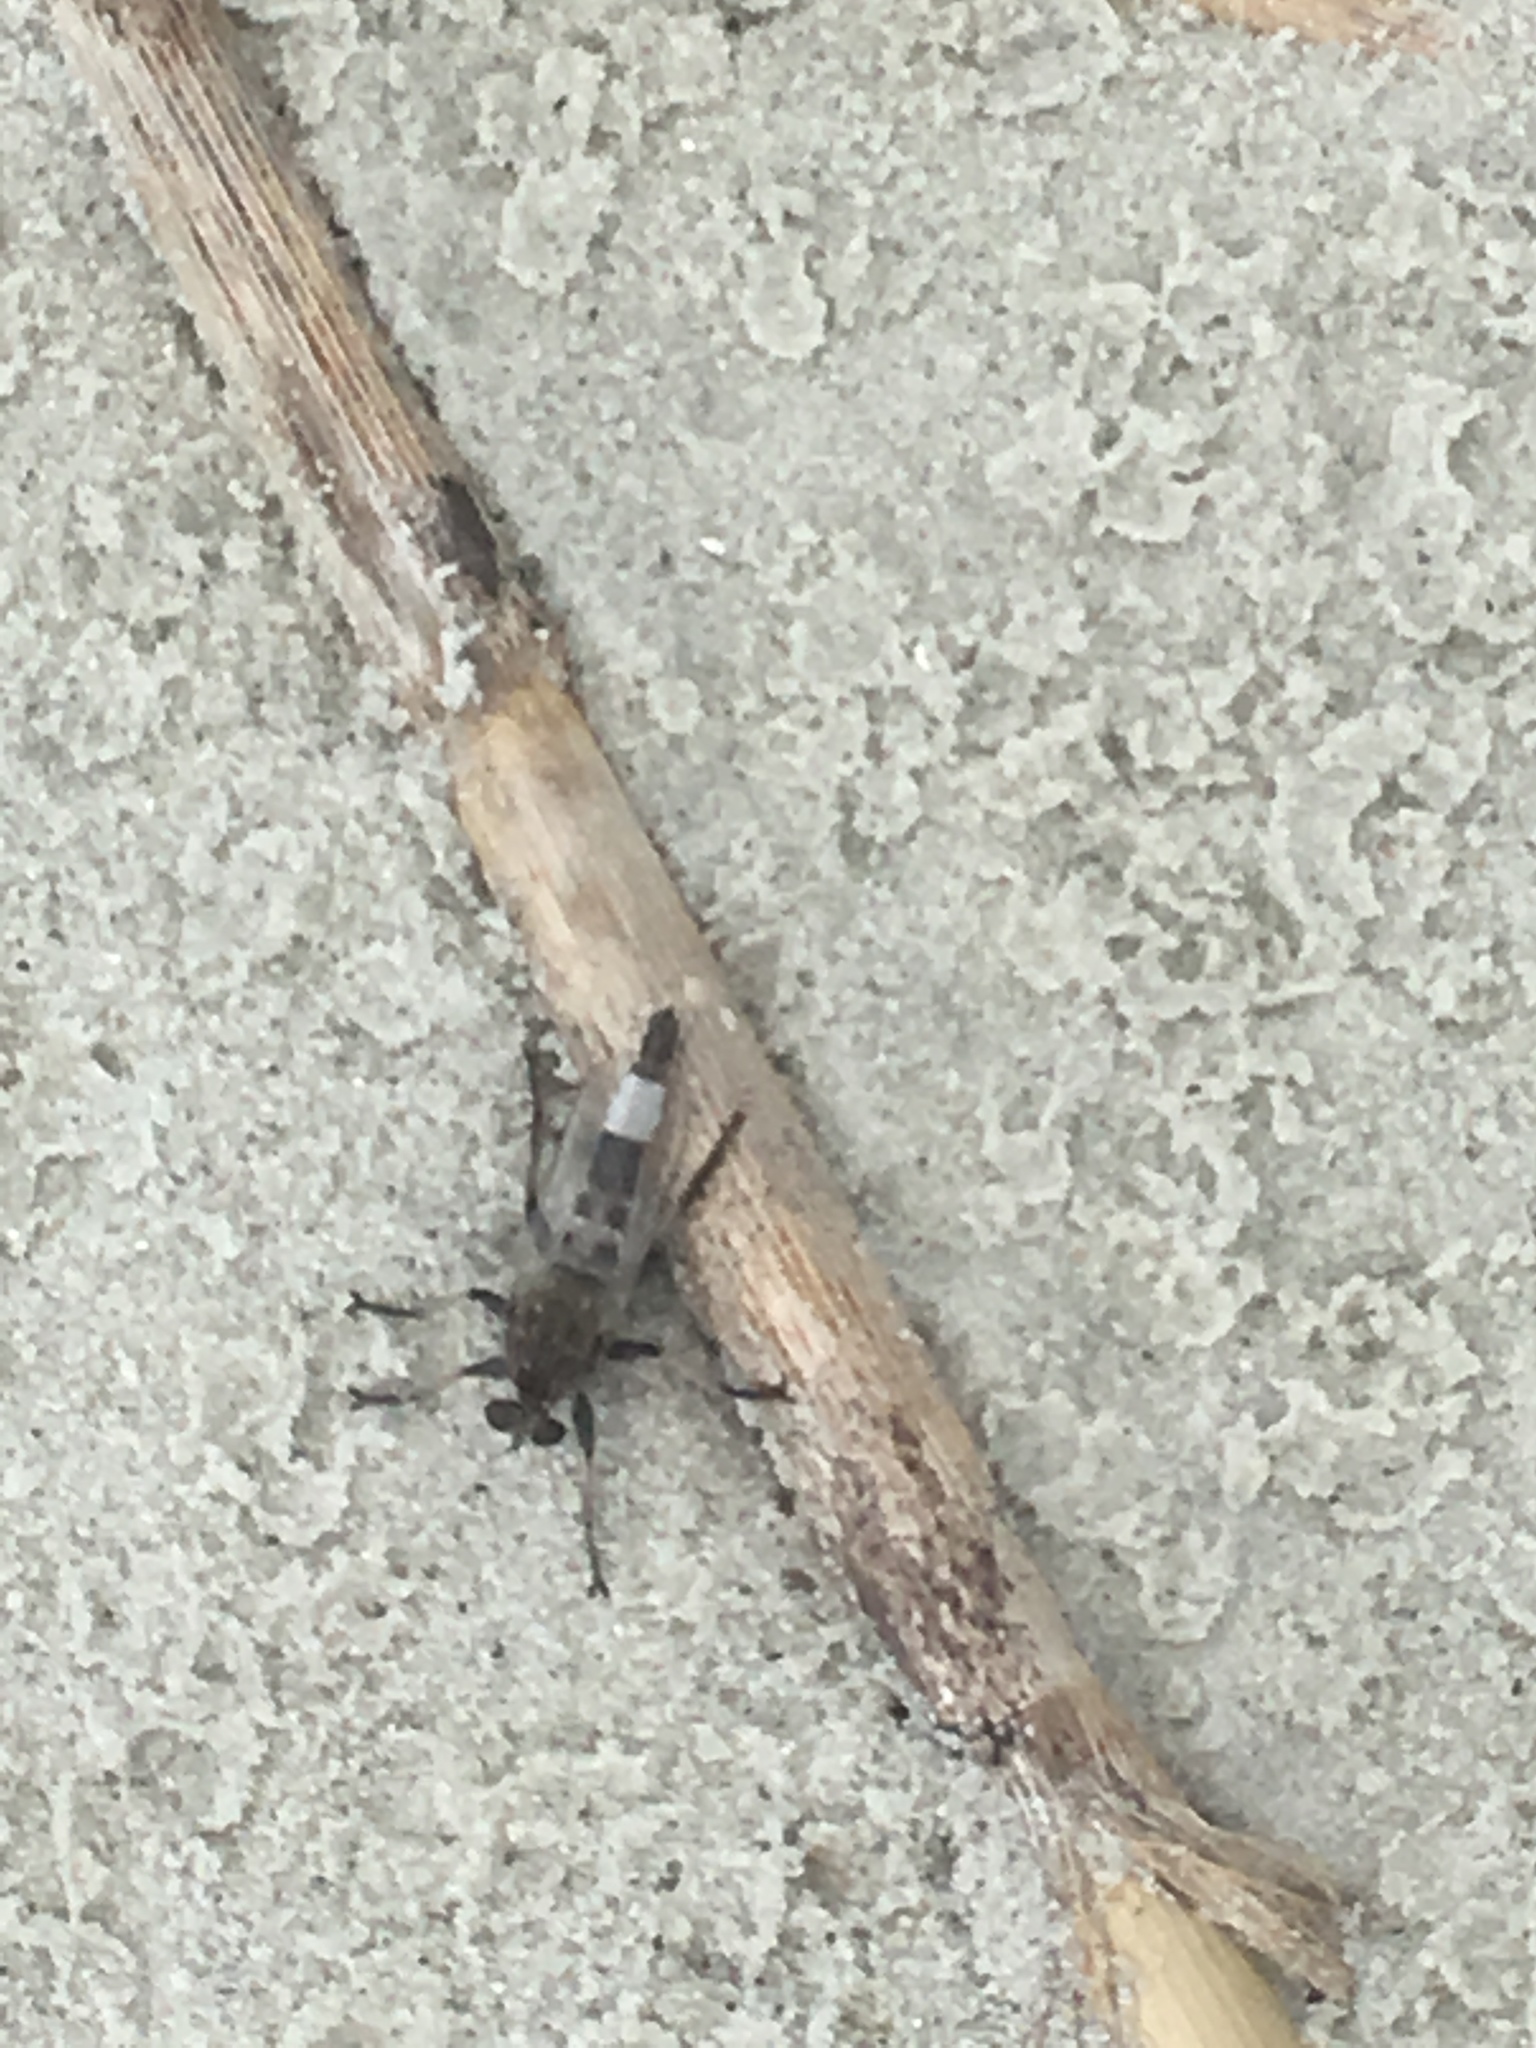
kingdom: Animalia
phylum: Arthropoda
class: Insecta
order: Diptera
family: Asilidae
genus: Efferia
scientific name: Efferia albibarbis
